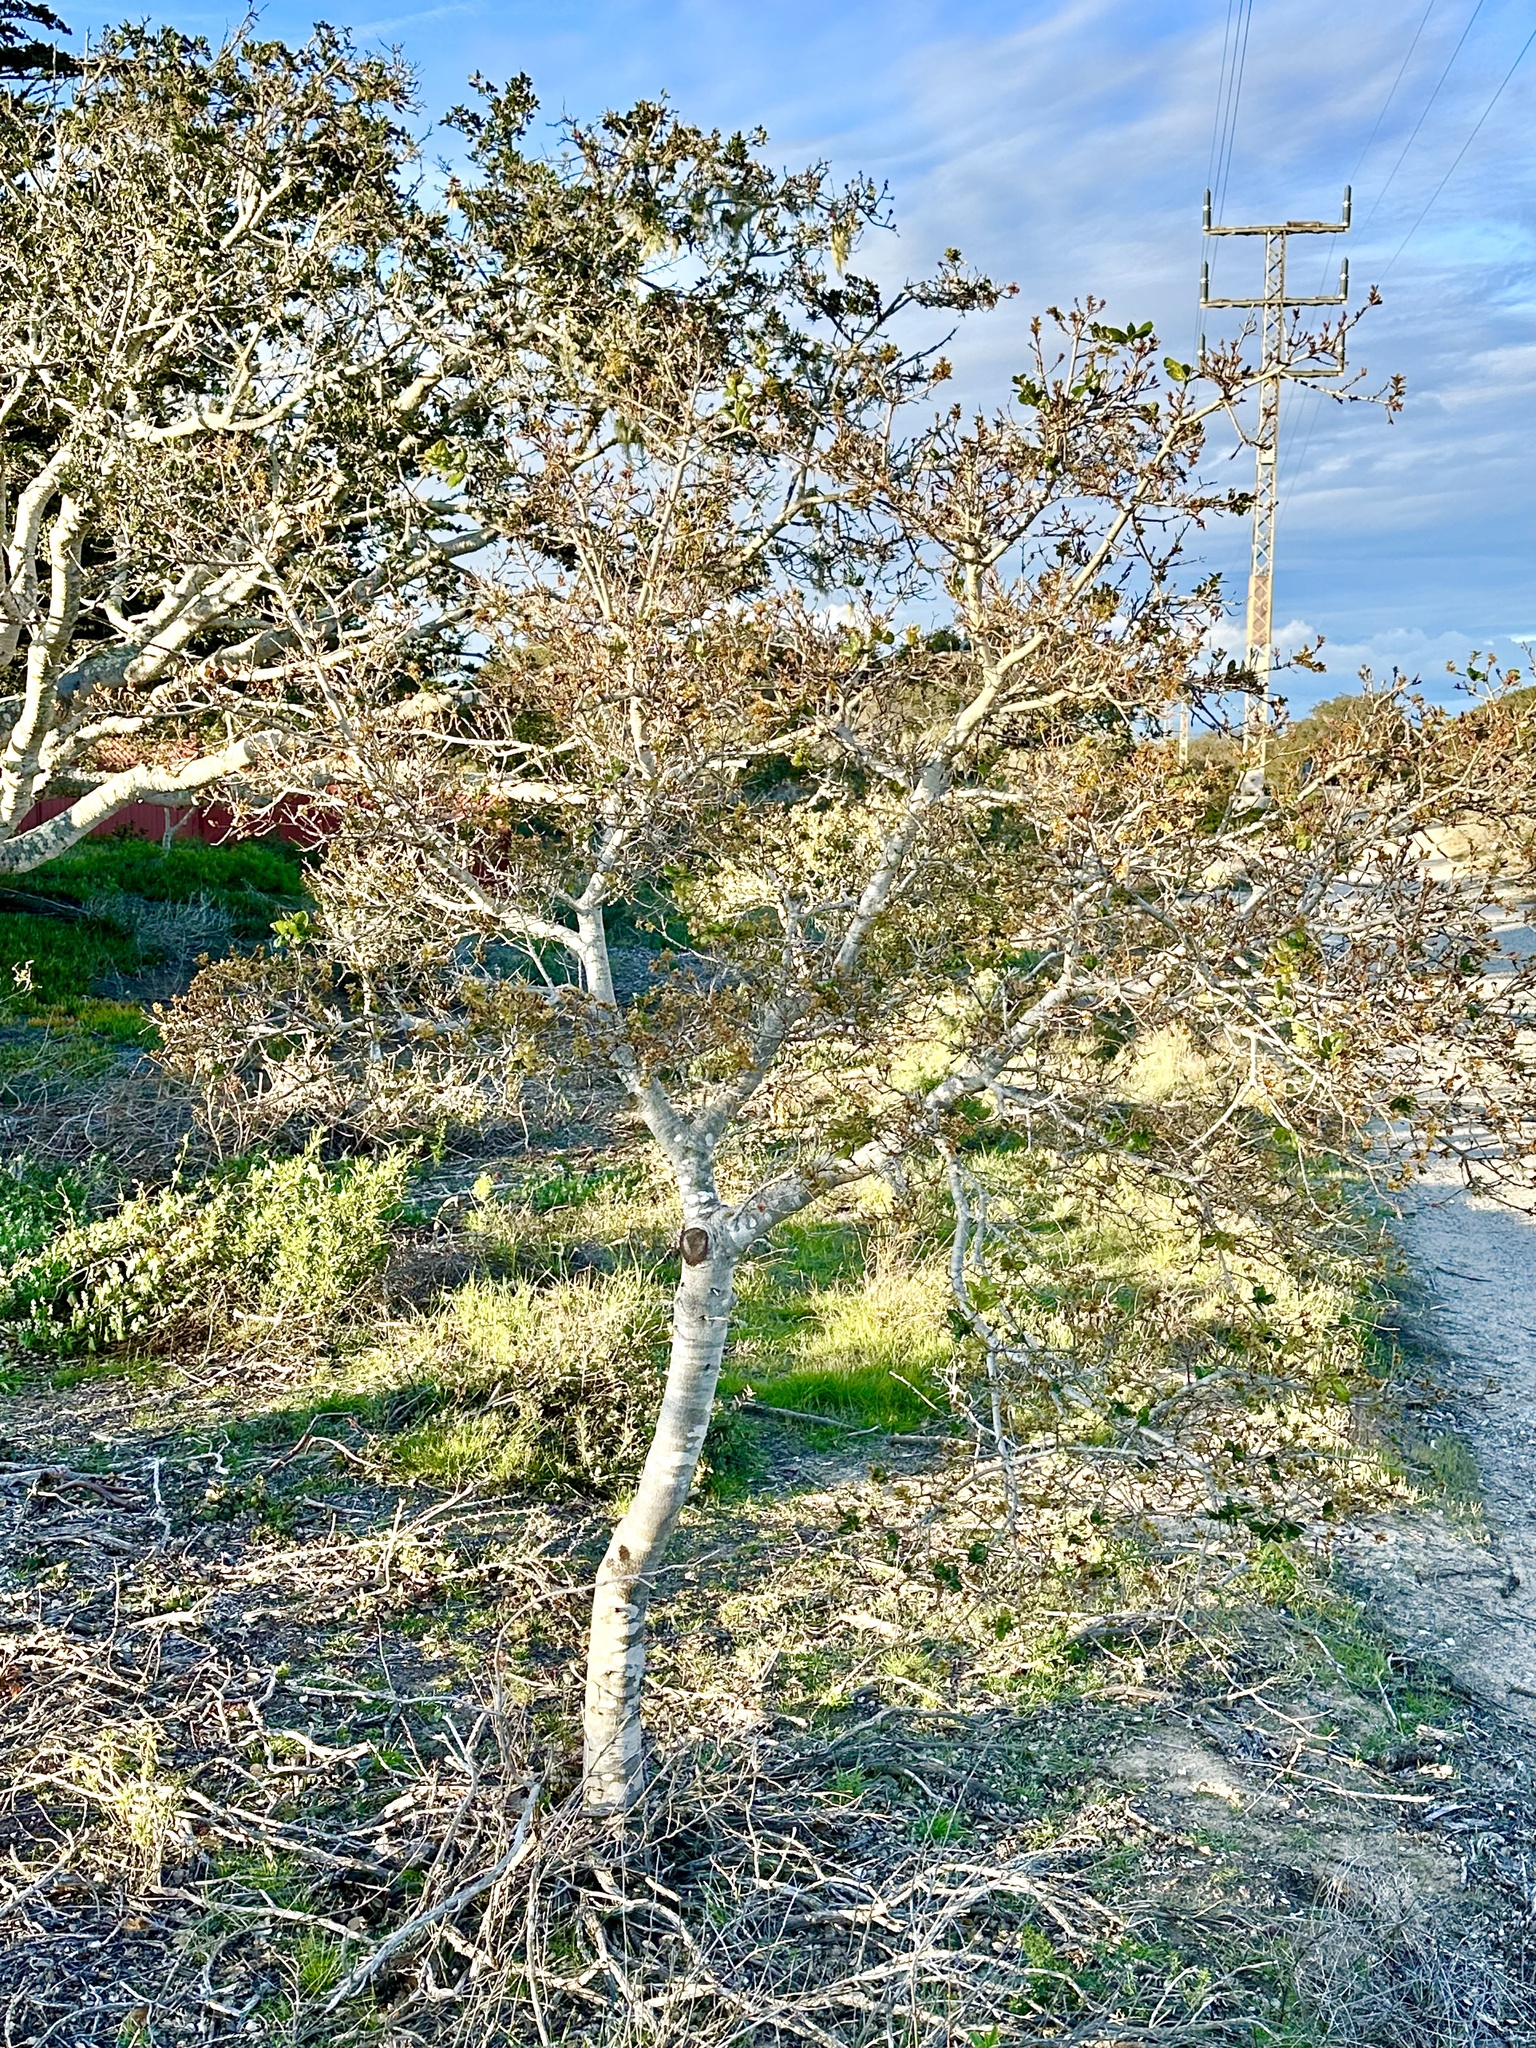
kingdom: Animalia
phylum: Arthropoda
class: Insecta
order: Hymenoptera
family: Cynipidae
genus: Dryocosmus
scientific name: Dryocosmus
